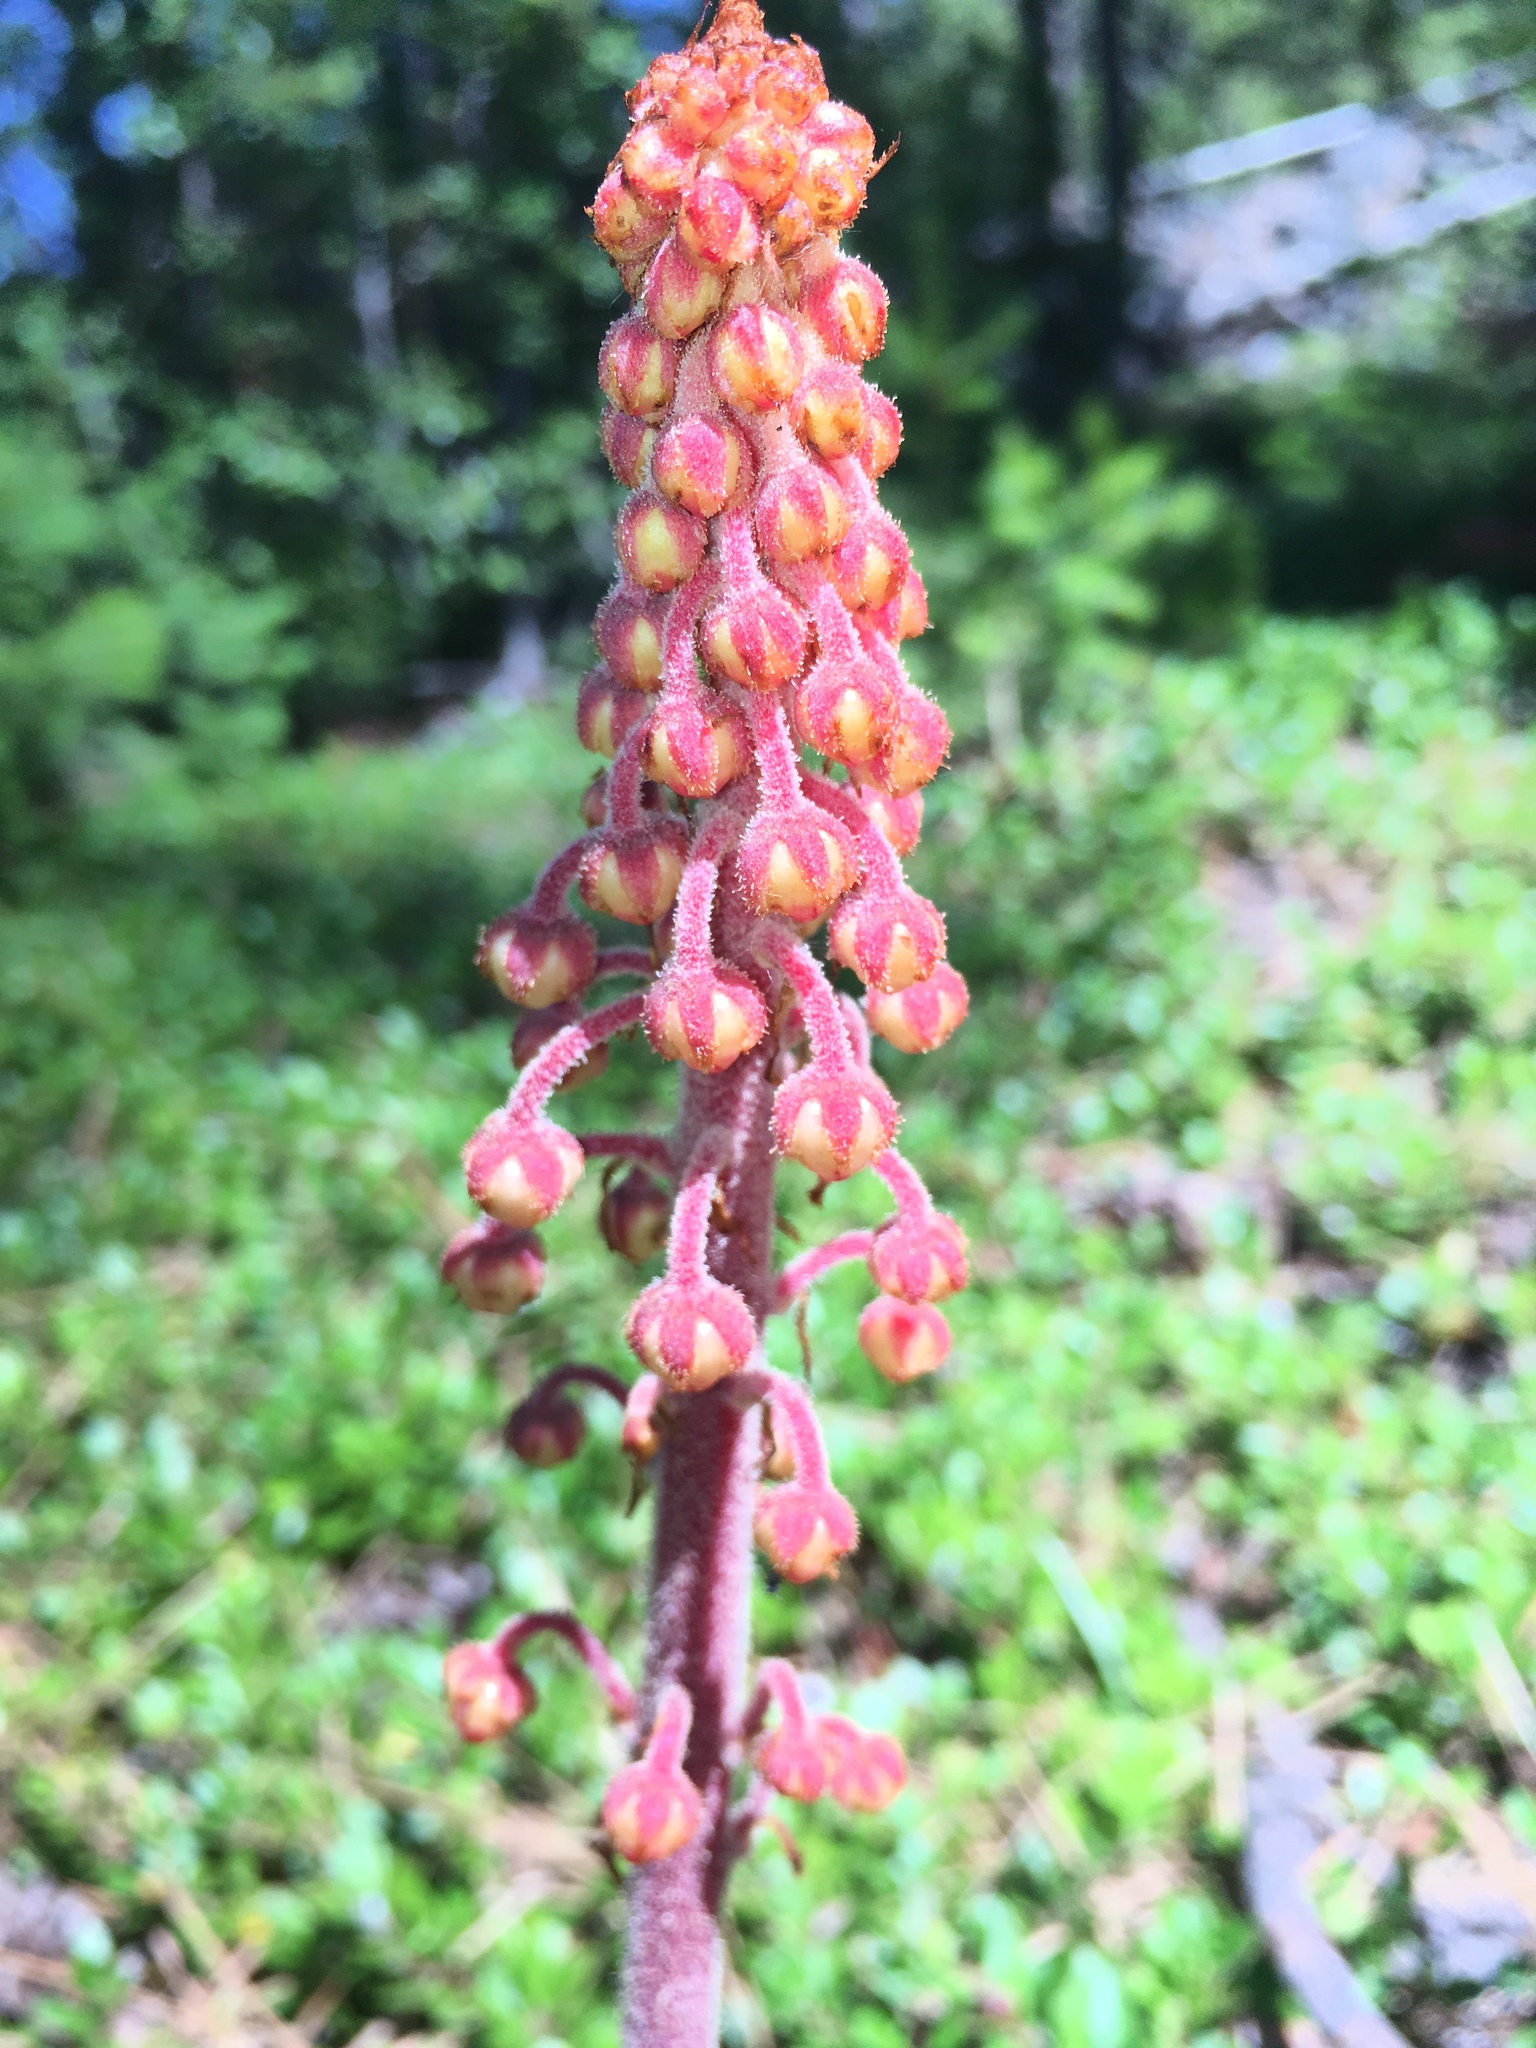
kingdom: Plantae
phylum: Tracheophyta
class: Magnoliopsida
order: Ericales
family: Ericaceae
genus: Pterospora
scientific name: Pterospora andromedea
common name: Giant bird's-nest
